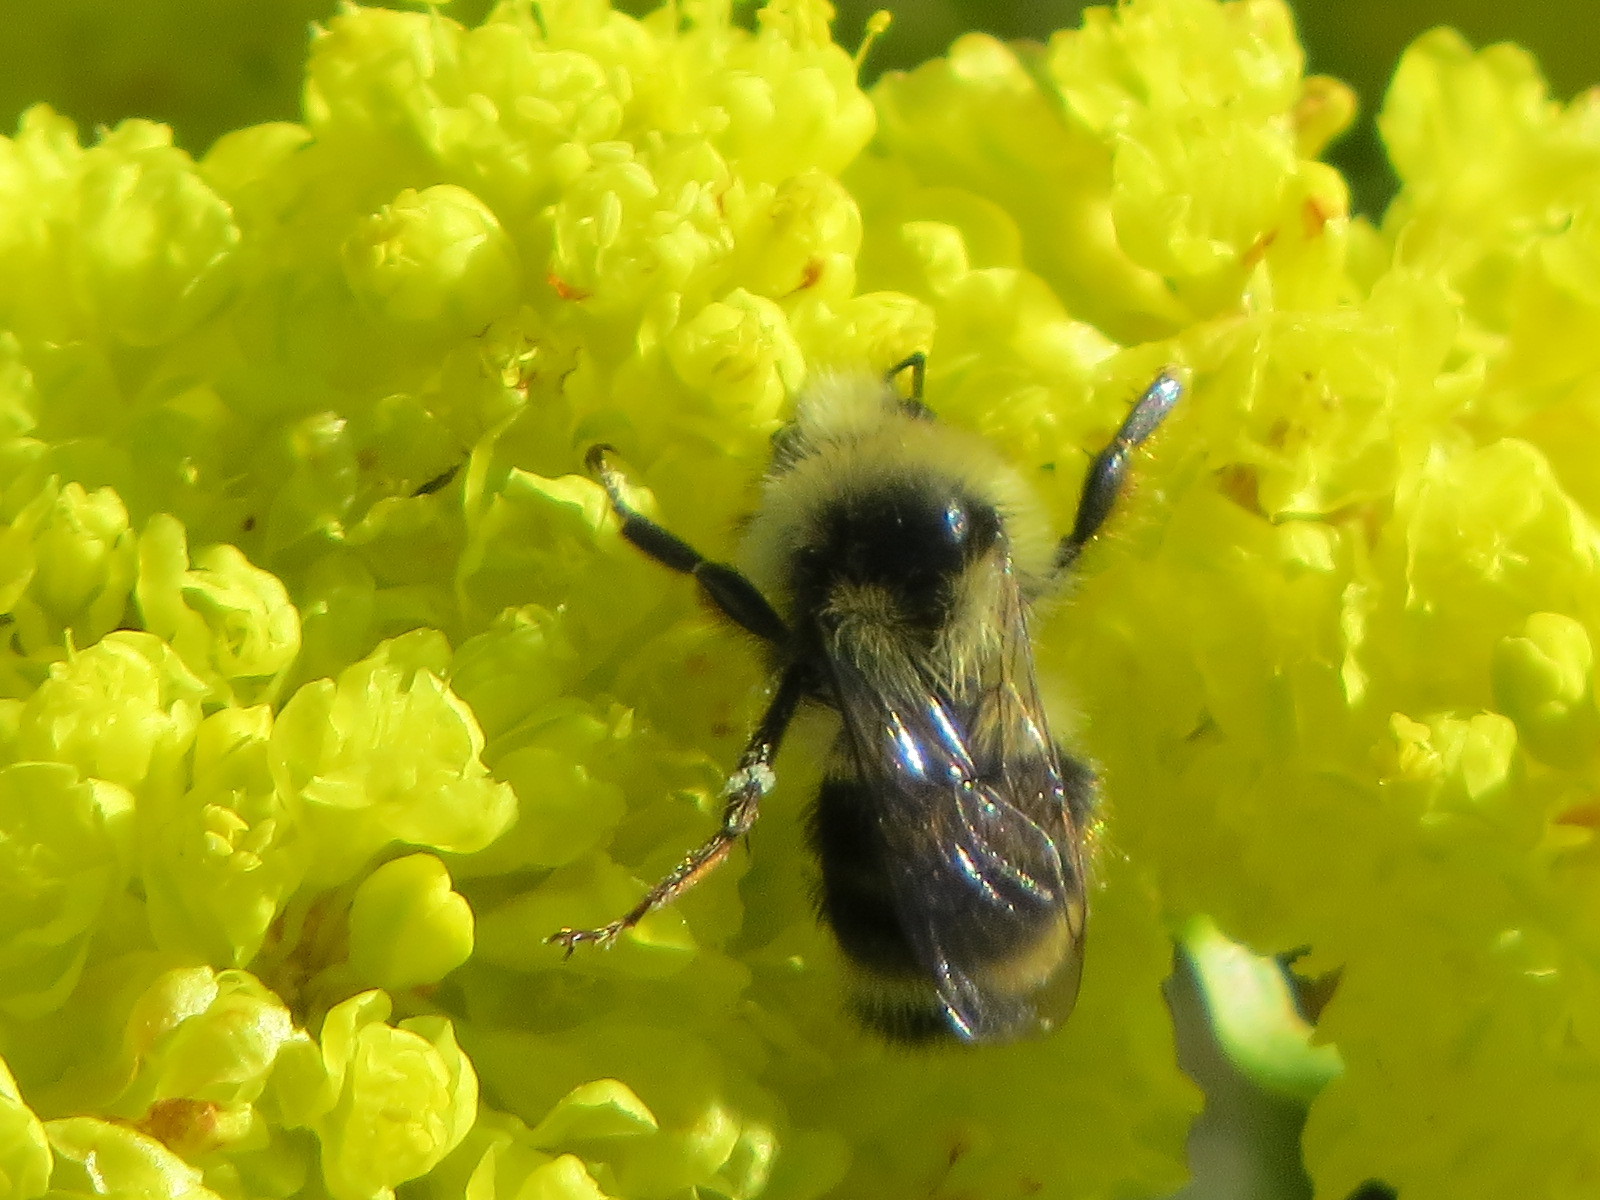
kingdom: Animalia
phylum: Arthropoda
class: Insecta
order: Hymenoptera
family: Apidae
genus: Bombus
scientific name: Bombus vancouverensis
